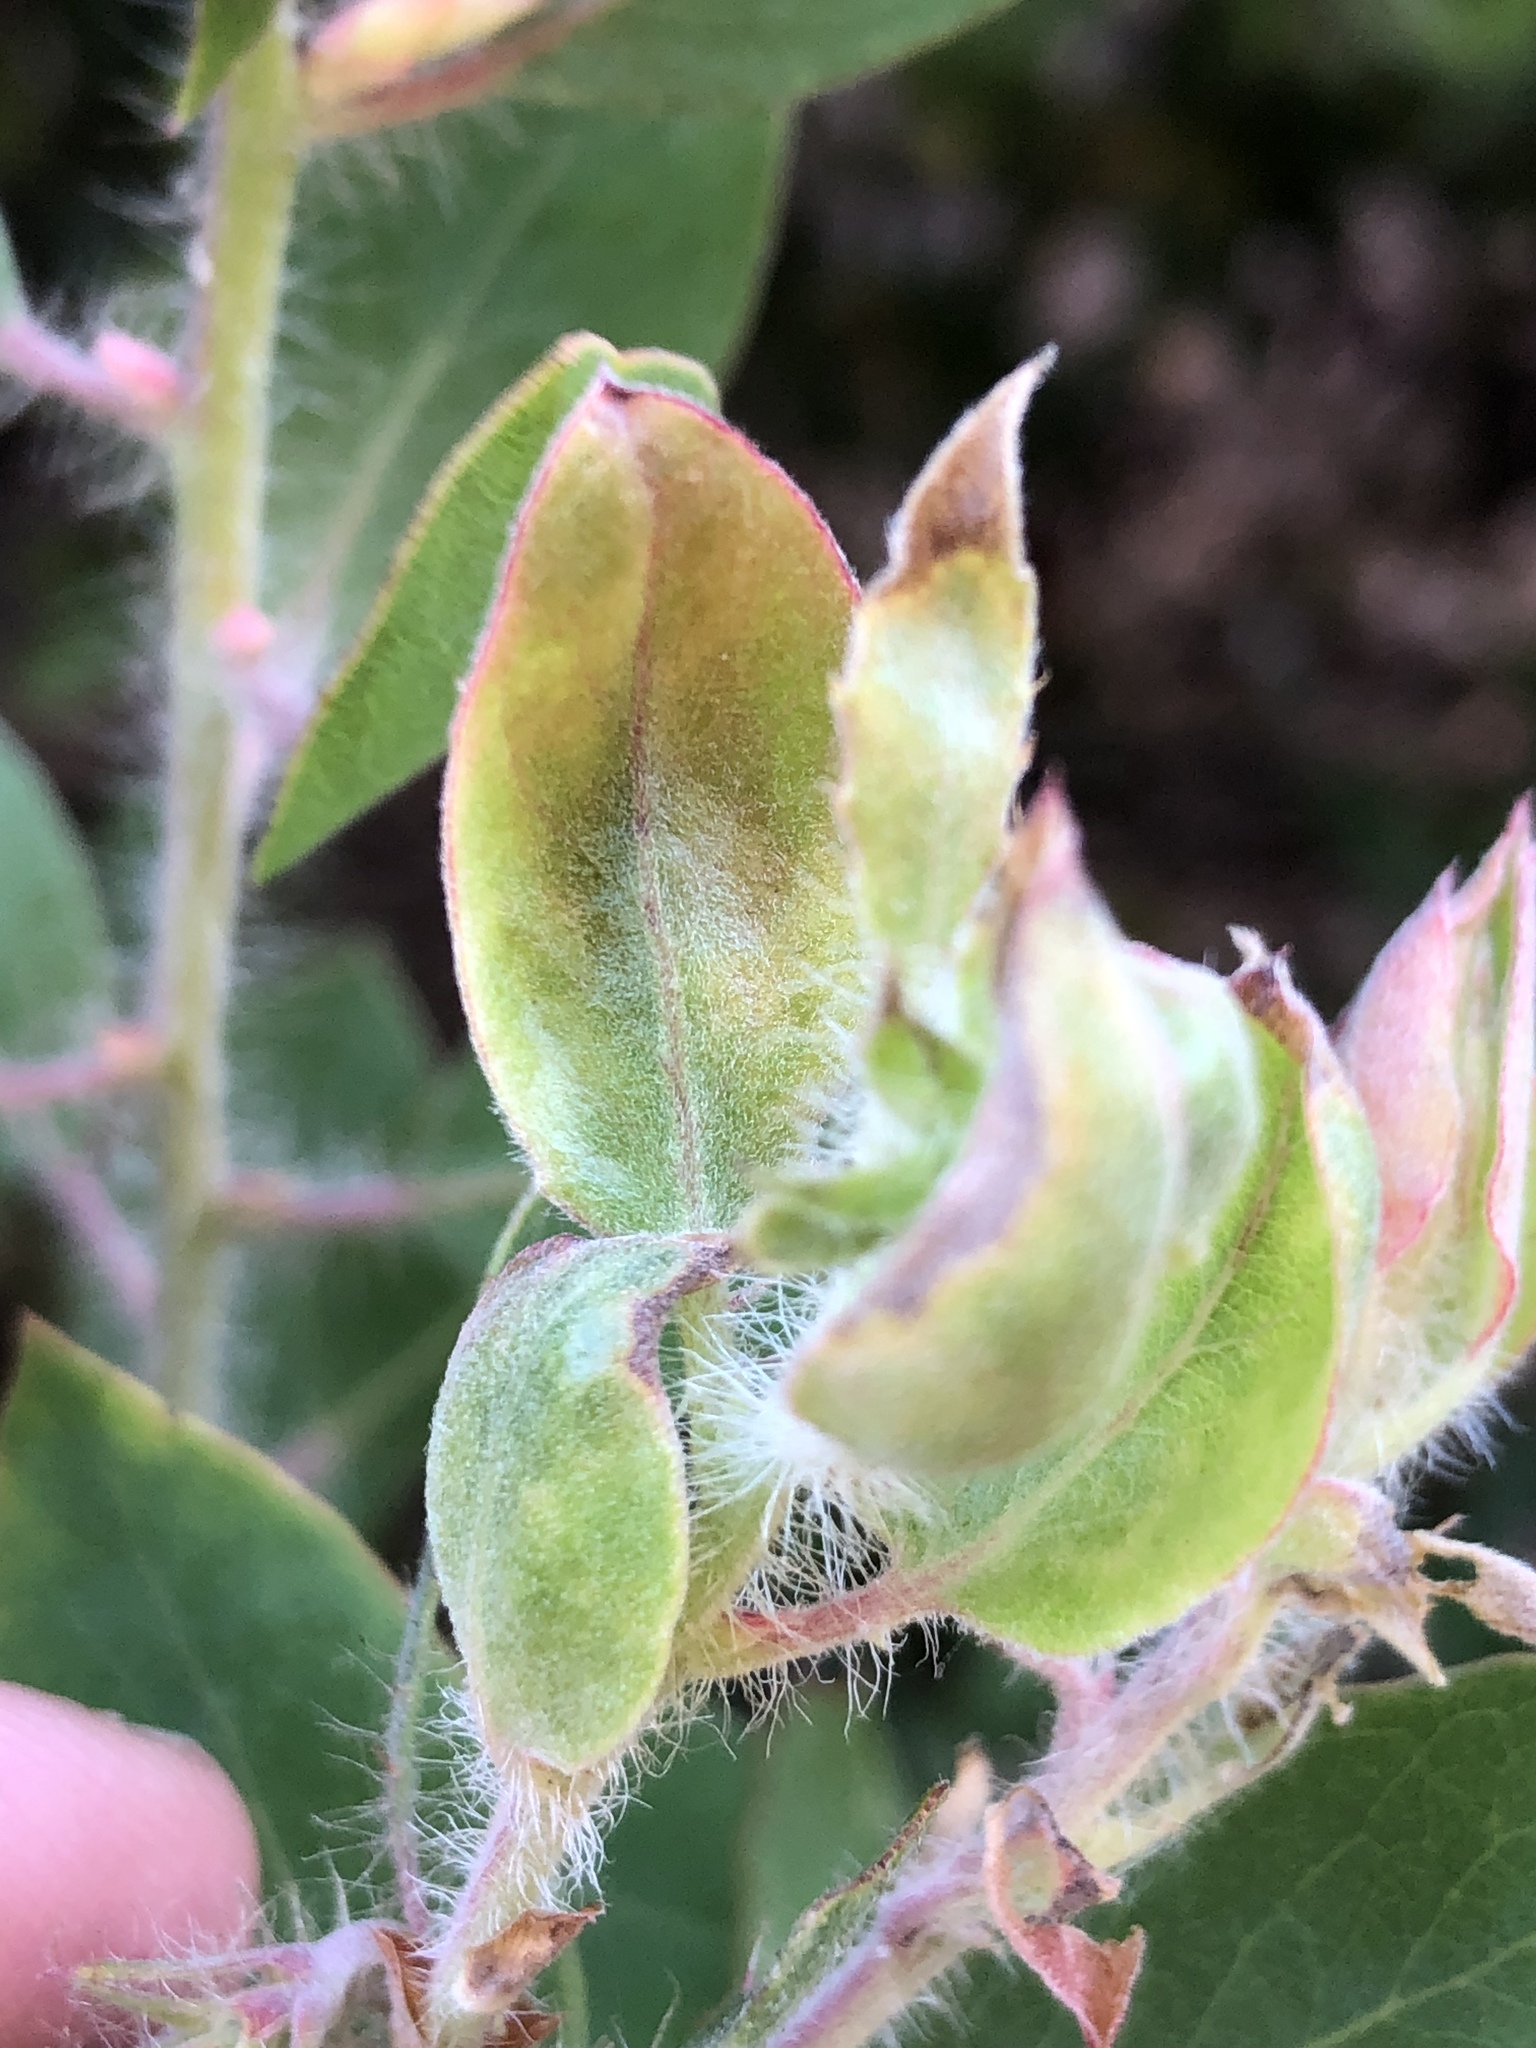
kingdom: Plantae
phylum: Tracheophyta
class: Magnoliopsida
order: Ericales
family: Ericaceae
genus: Arctostaphylos
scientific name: Arctostaphylos pilosula
